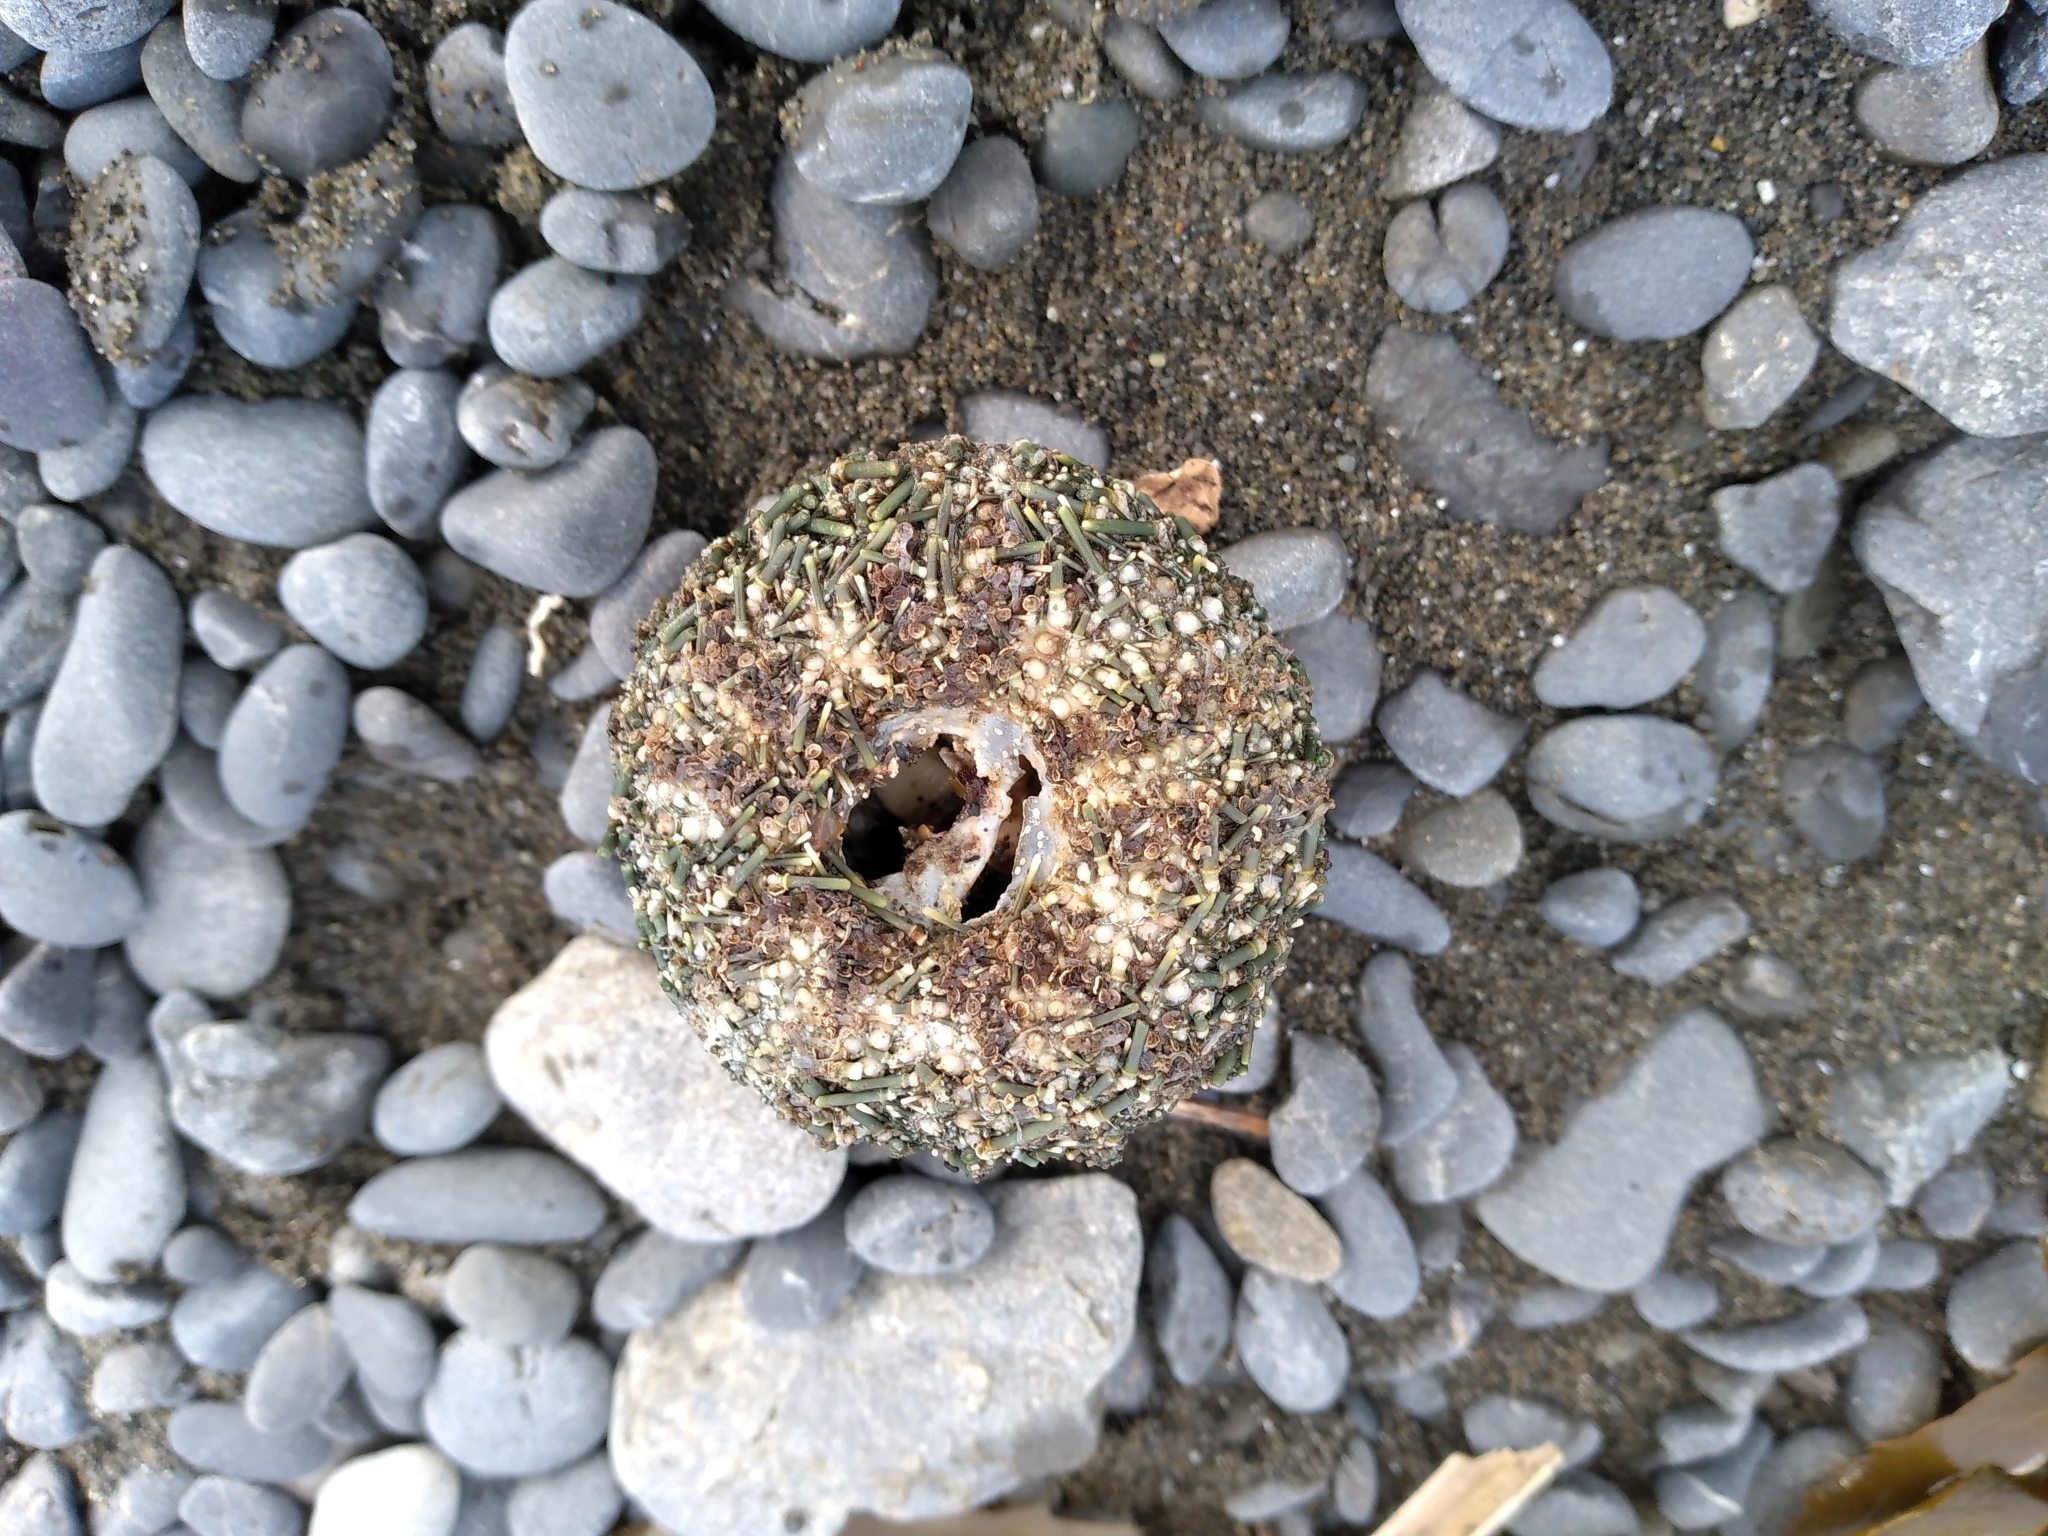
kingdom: Animalia
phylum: Echinodermata
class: Echinoidea
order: Camarodonta
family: Echinometridae
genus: Evechinus
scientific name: Evechinus chloroticus
